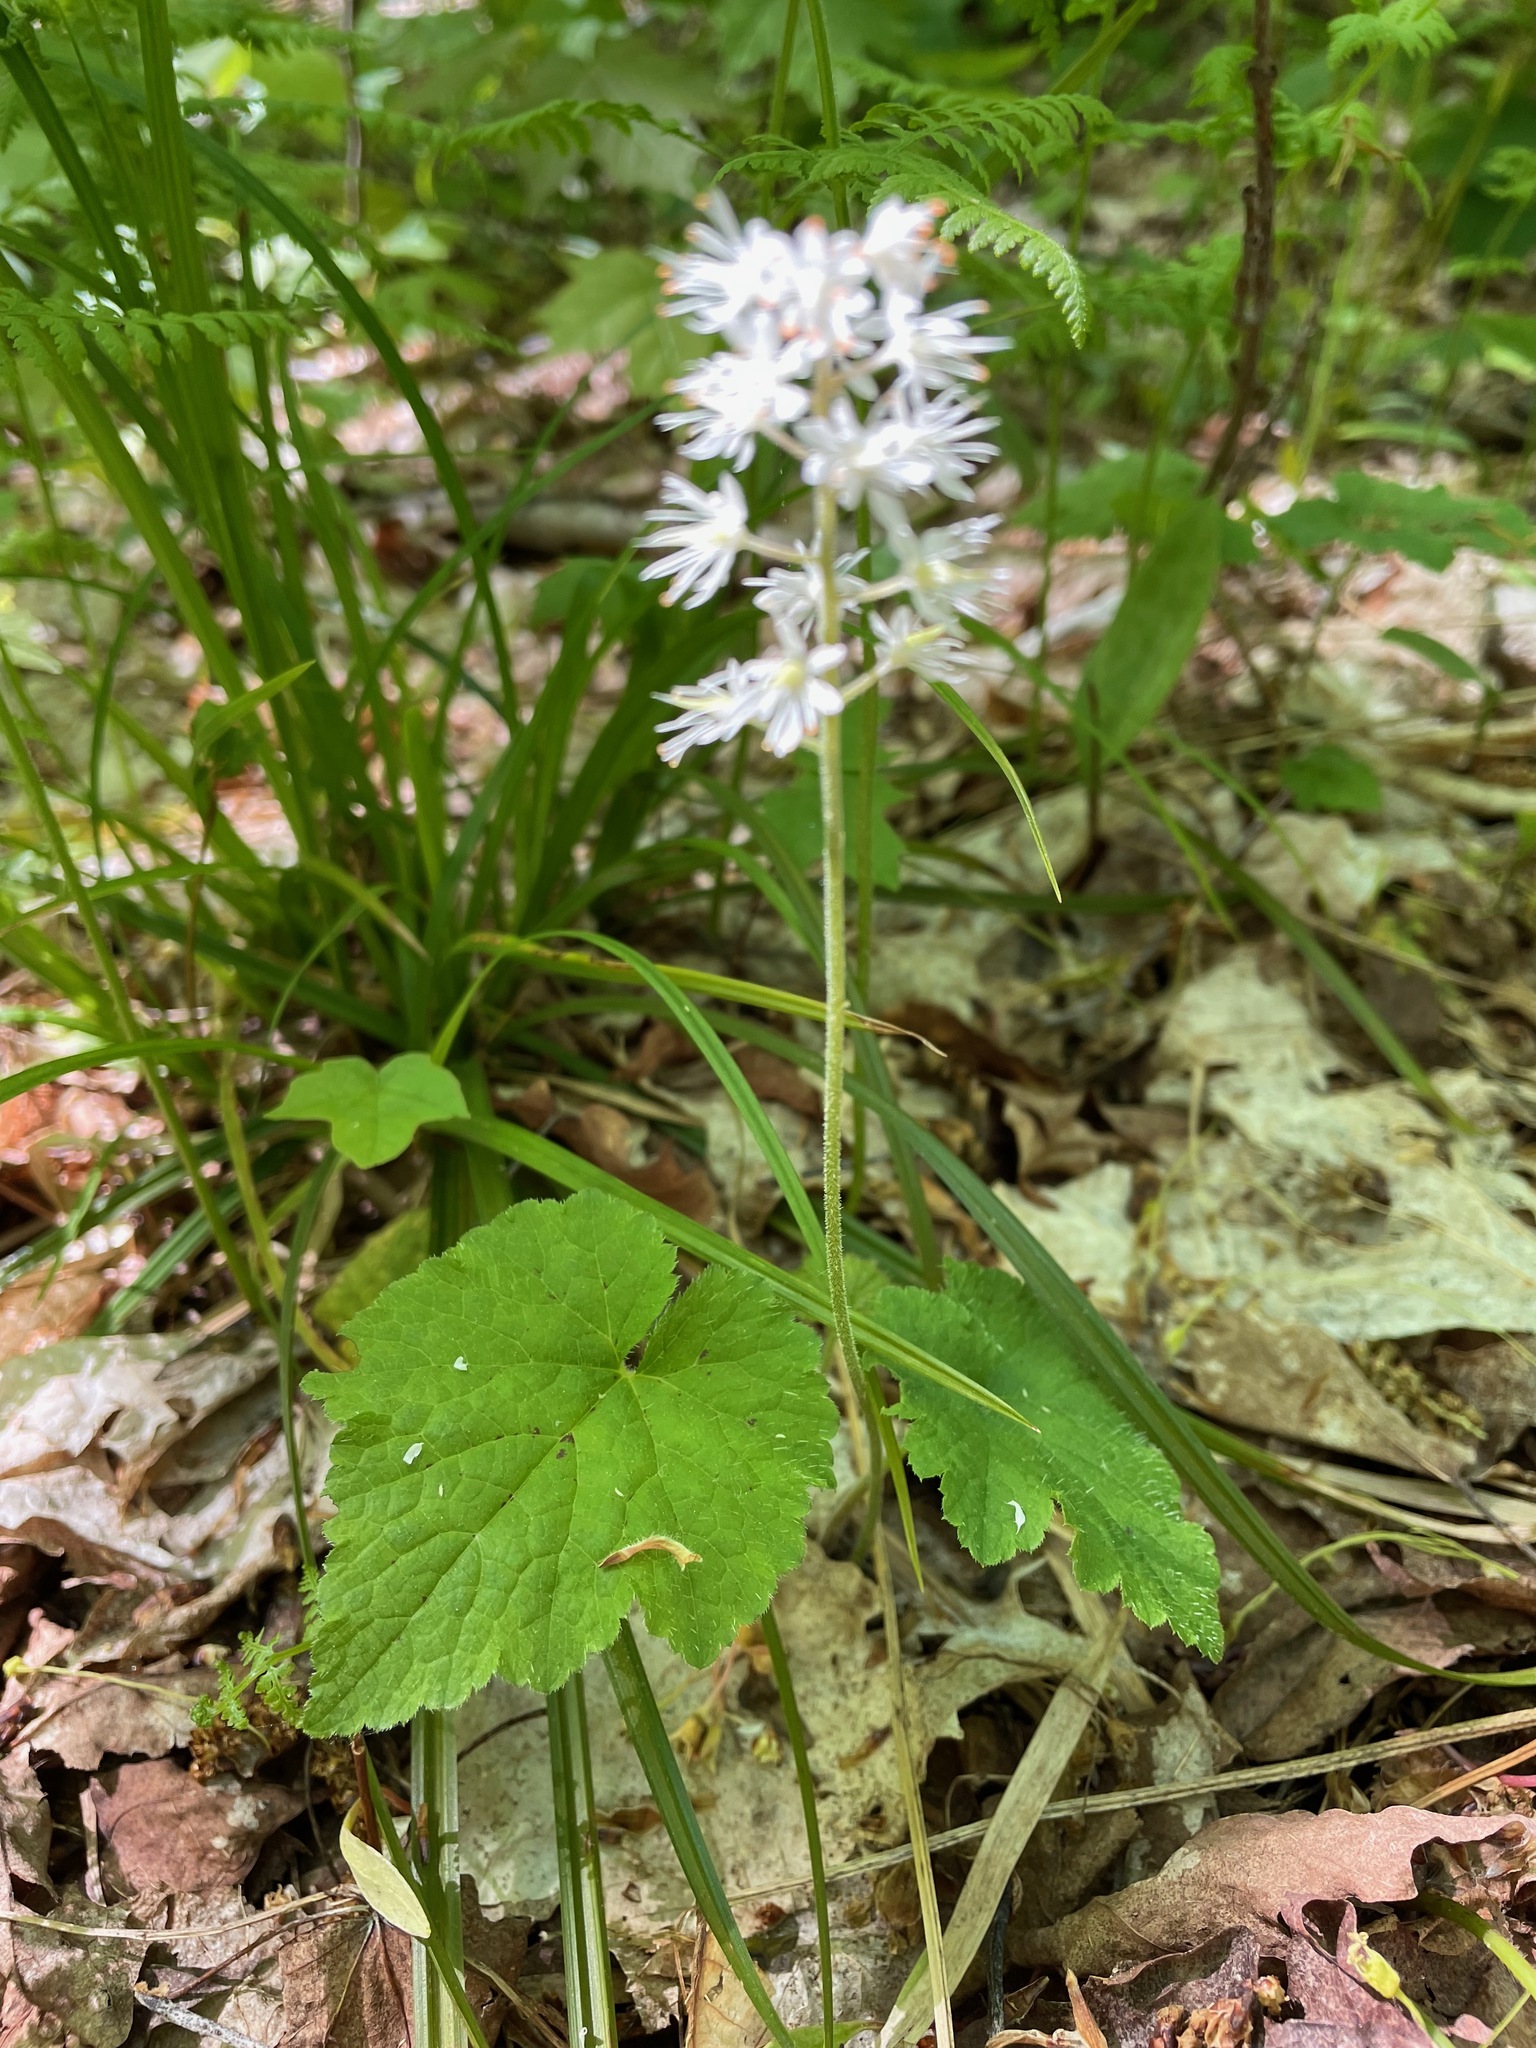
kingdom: Plantae
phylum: Tracheophyta
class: Magnoliopsida
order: Saxifragales
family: Saxifragaceae
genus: Tiarella
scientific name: Tiarella stolonifera
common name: Stoloniferous foamflower
